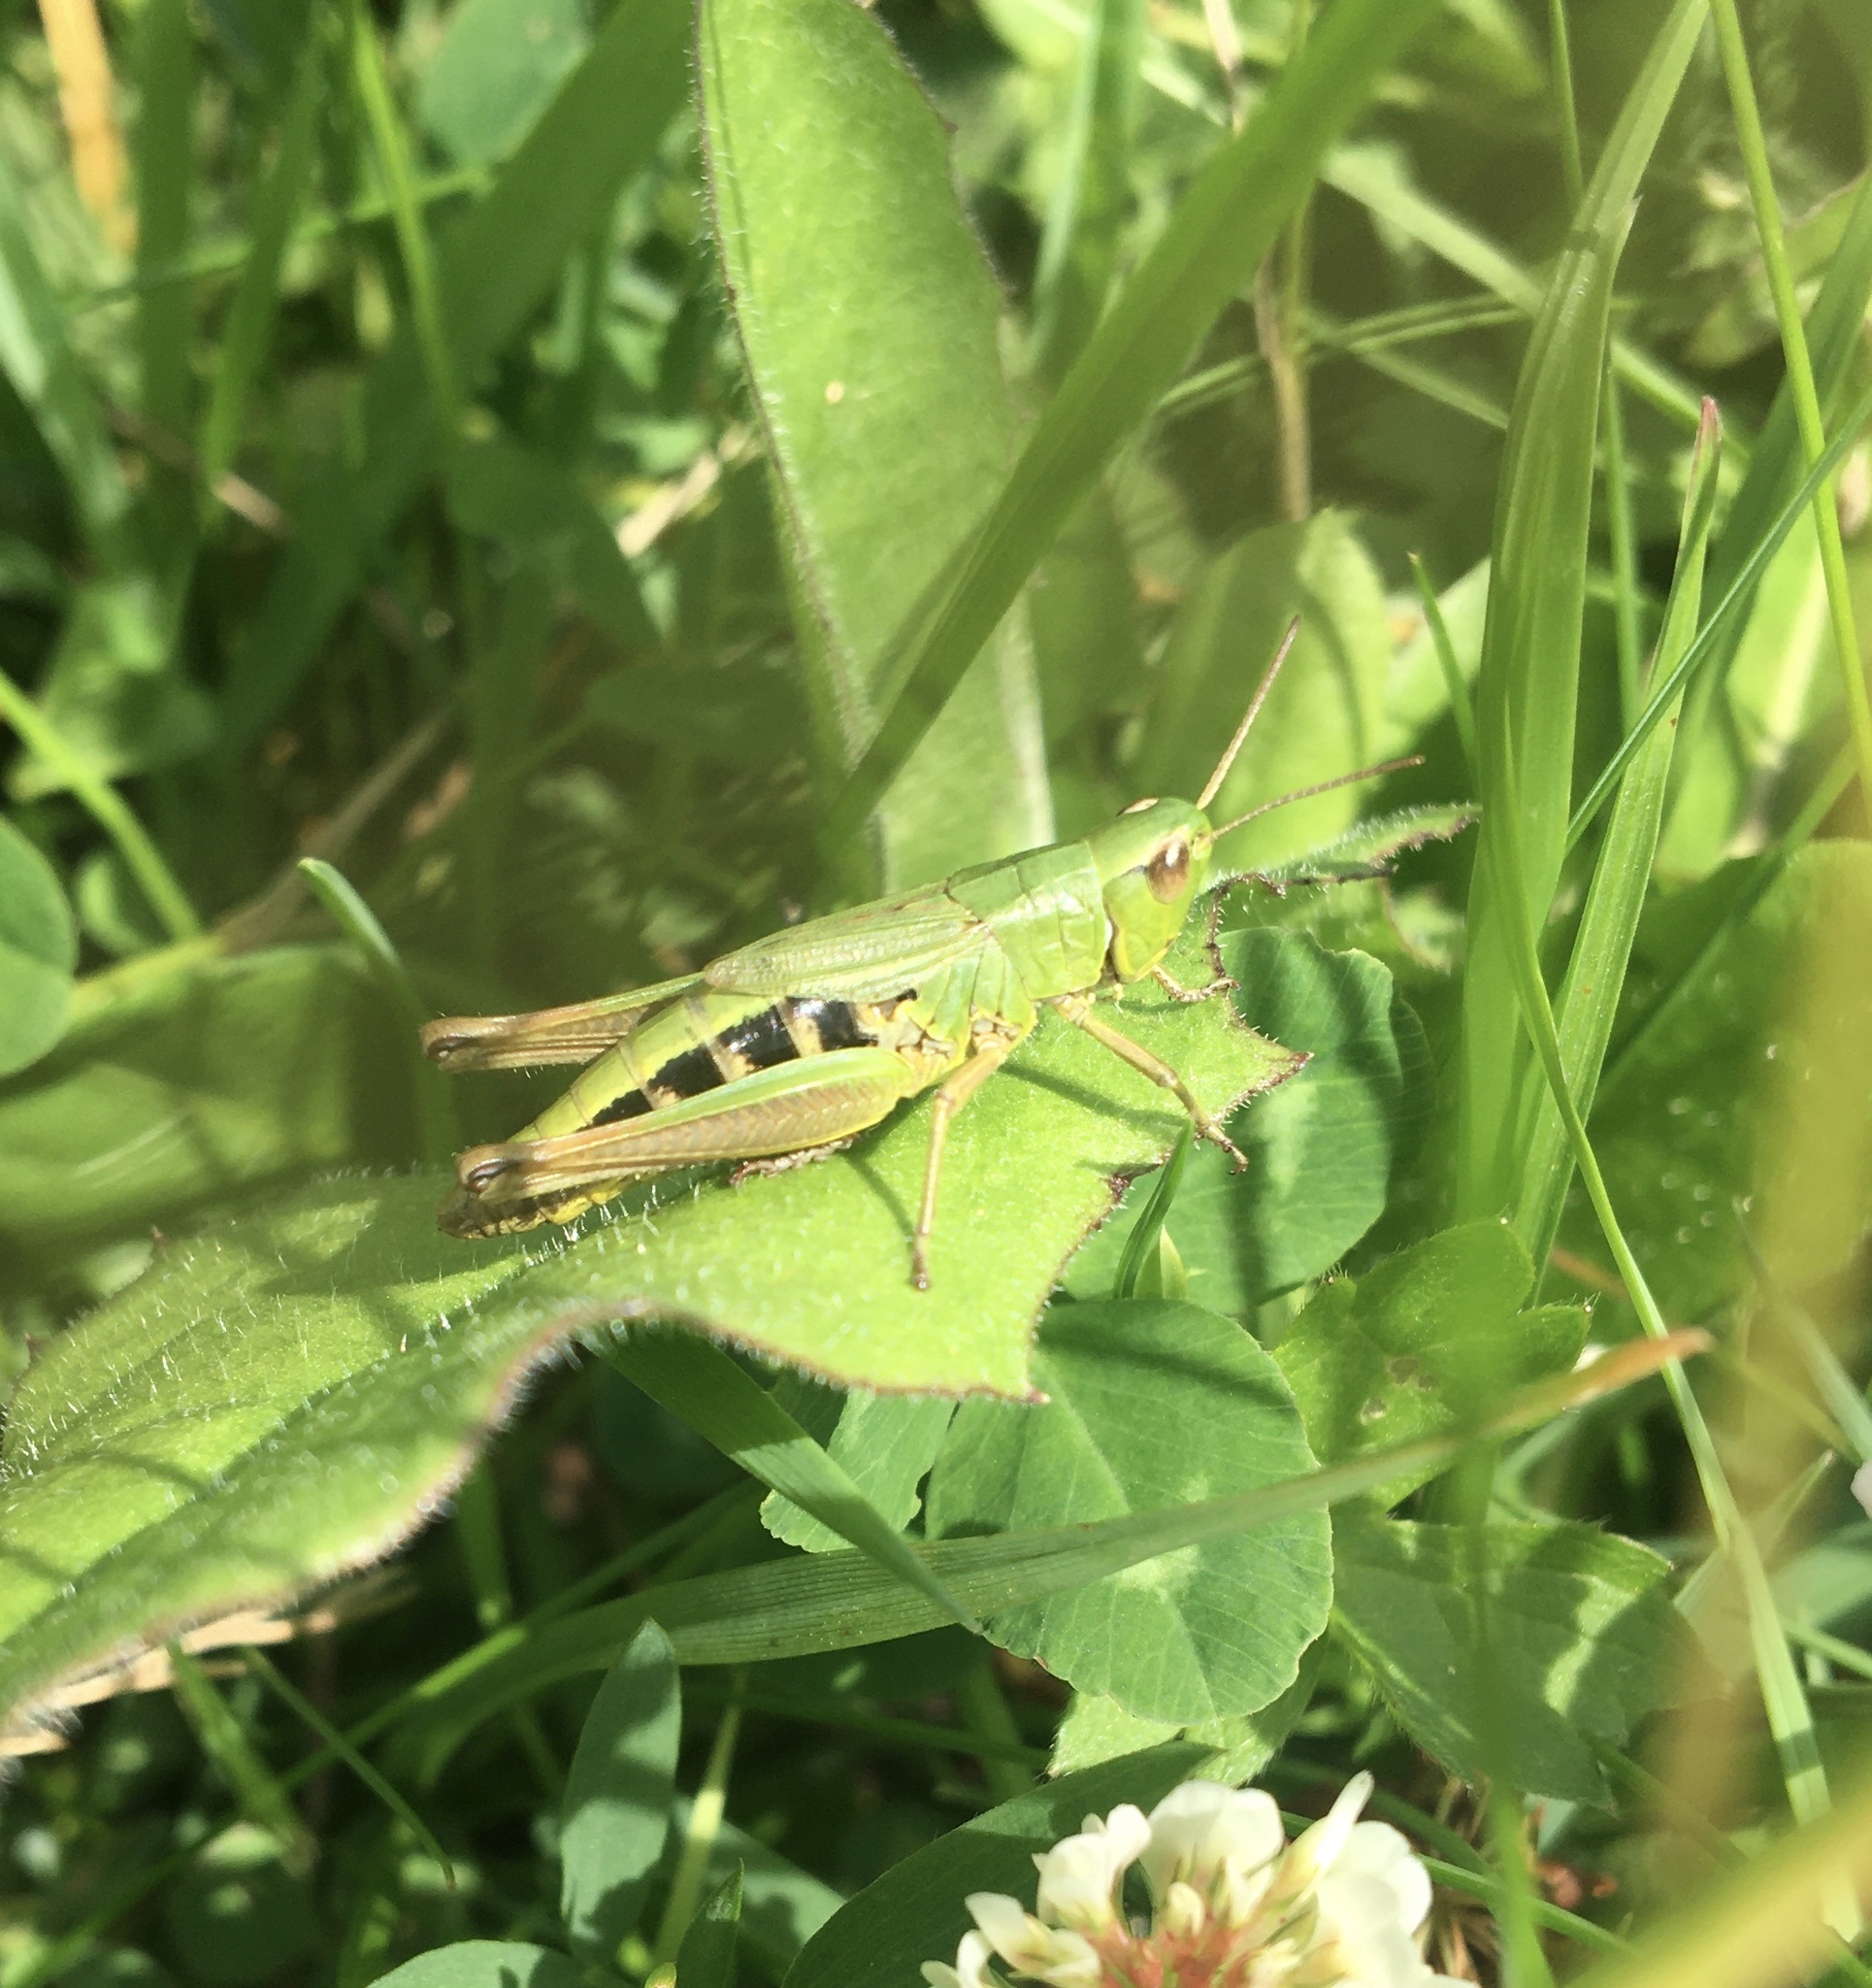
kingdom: Animalia
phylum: Arthropoda
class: Insecta
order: Orthoptera
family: Acrididae
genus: Pseudochorthippus
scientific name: Pseudochorthippus parallelus
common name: Meadow grasshopper
